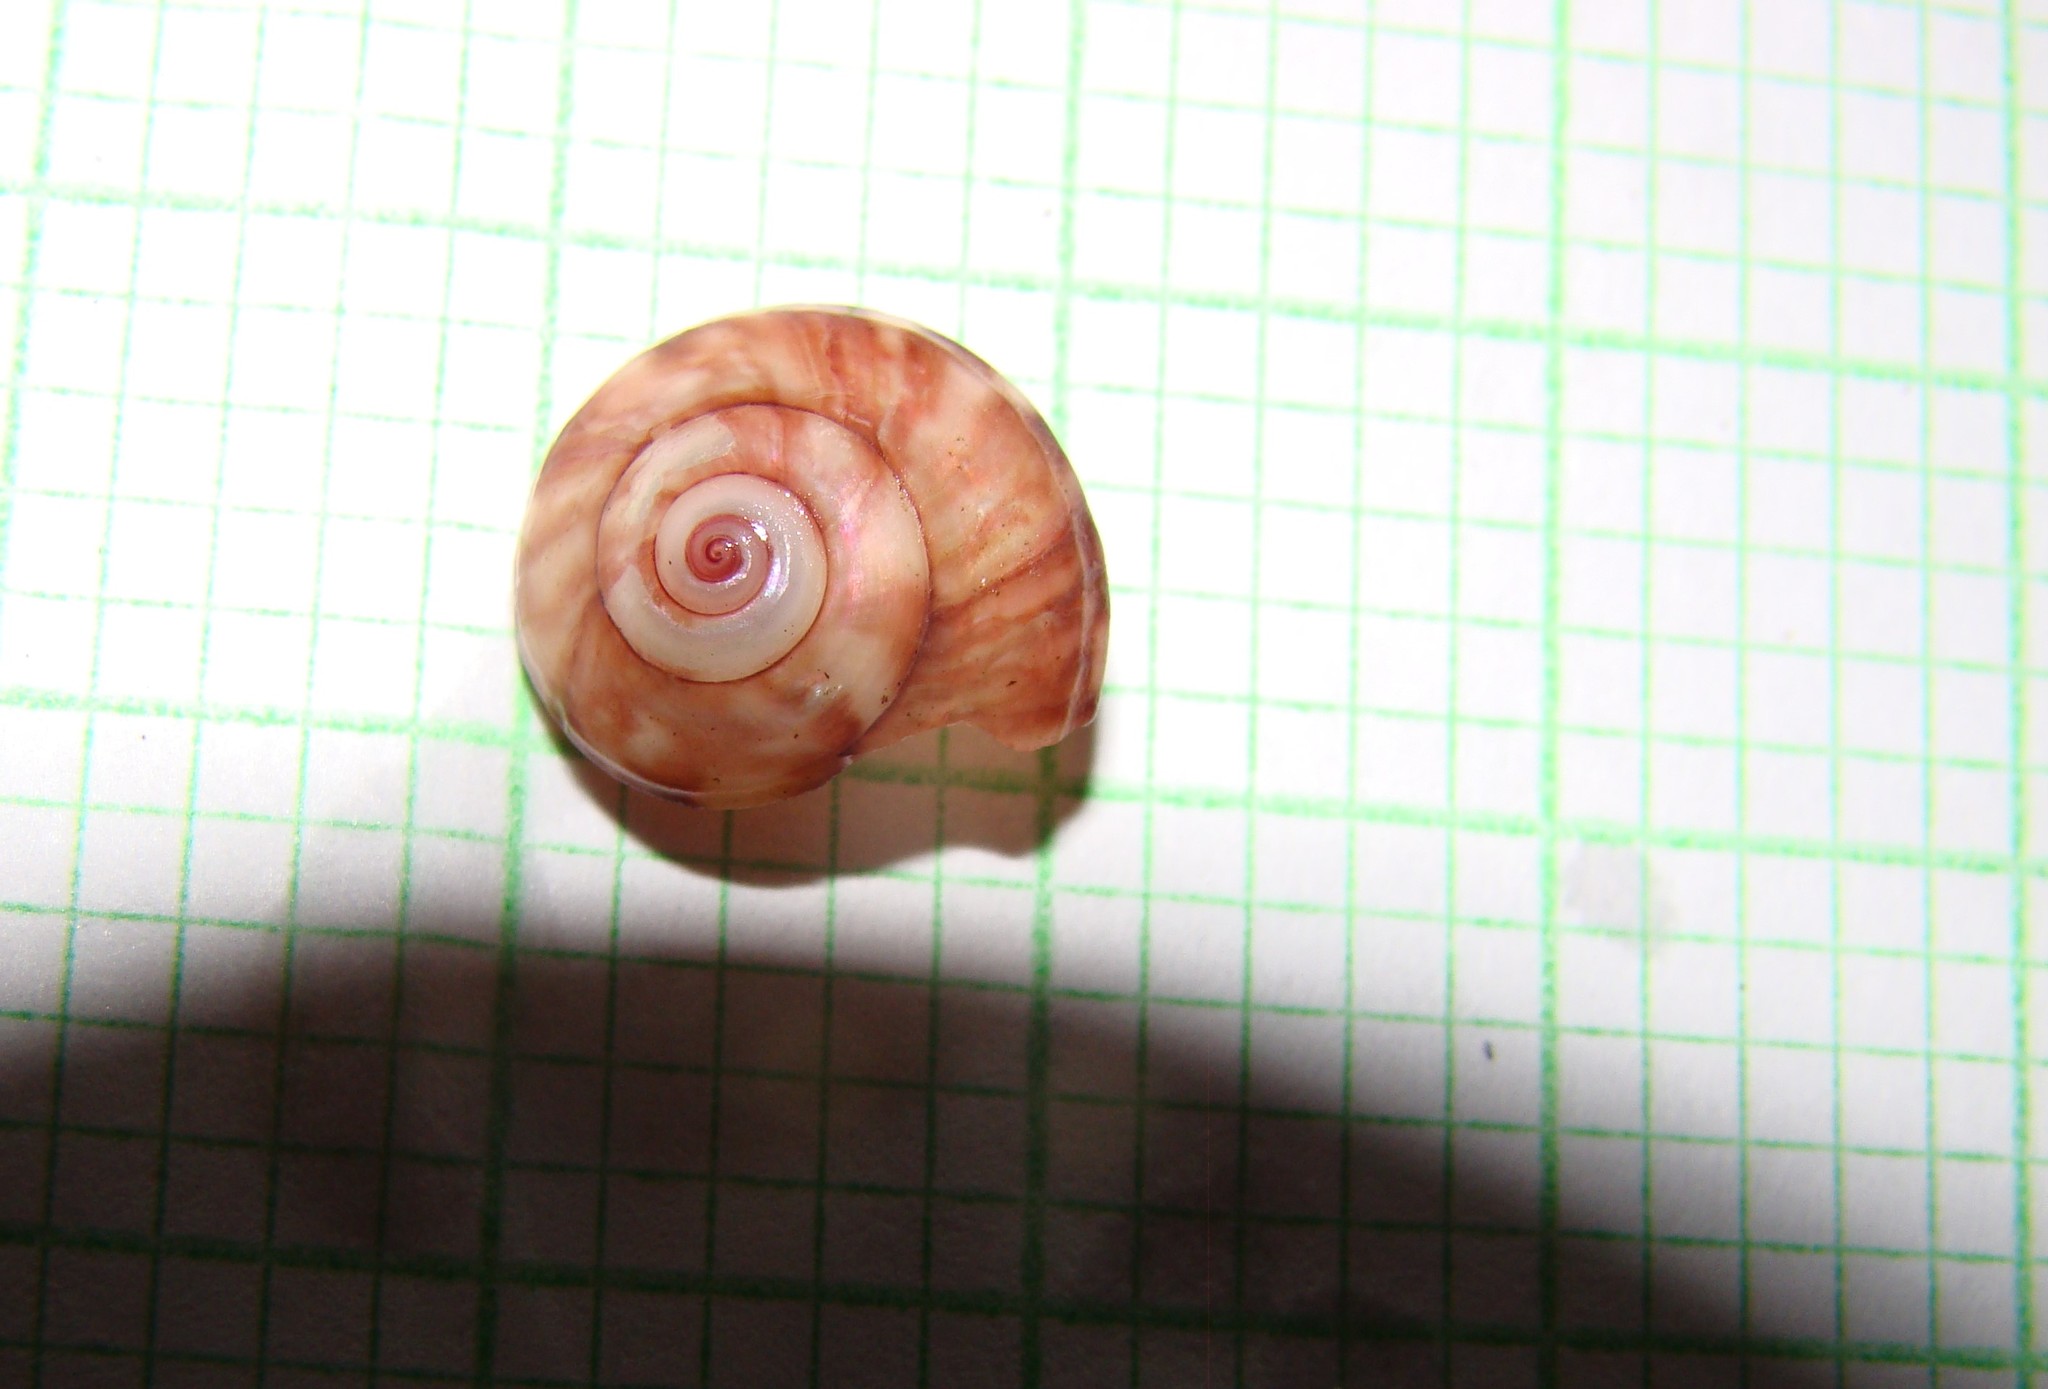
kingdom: Animalia
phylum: Mollusca
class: Gastropoda
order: Trochida
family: Trochidae
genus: Zethalia
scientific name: Zethalia zelandica
